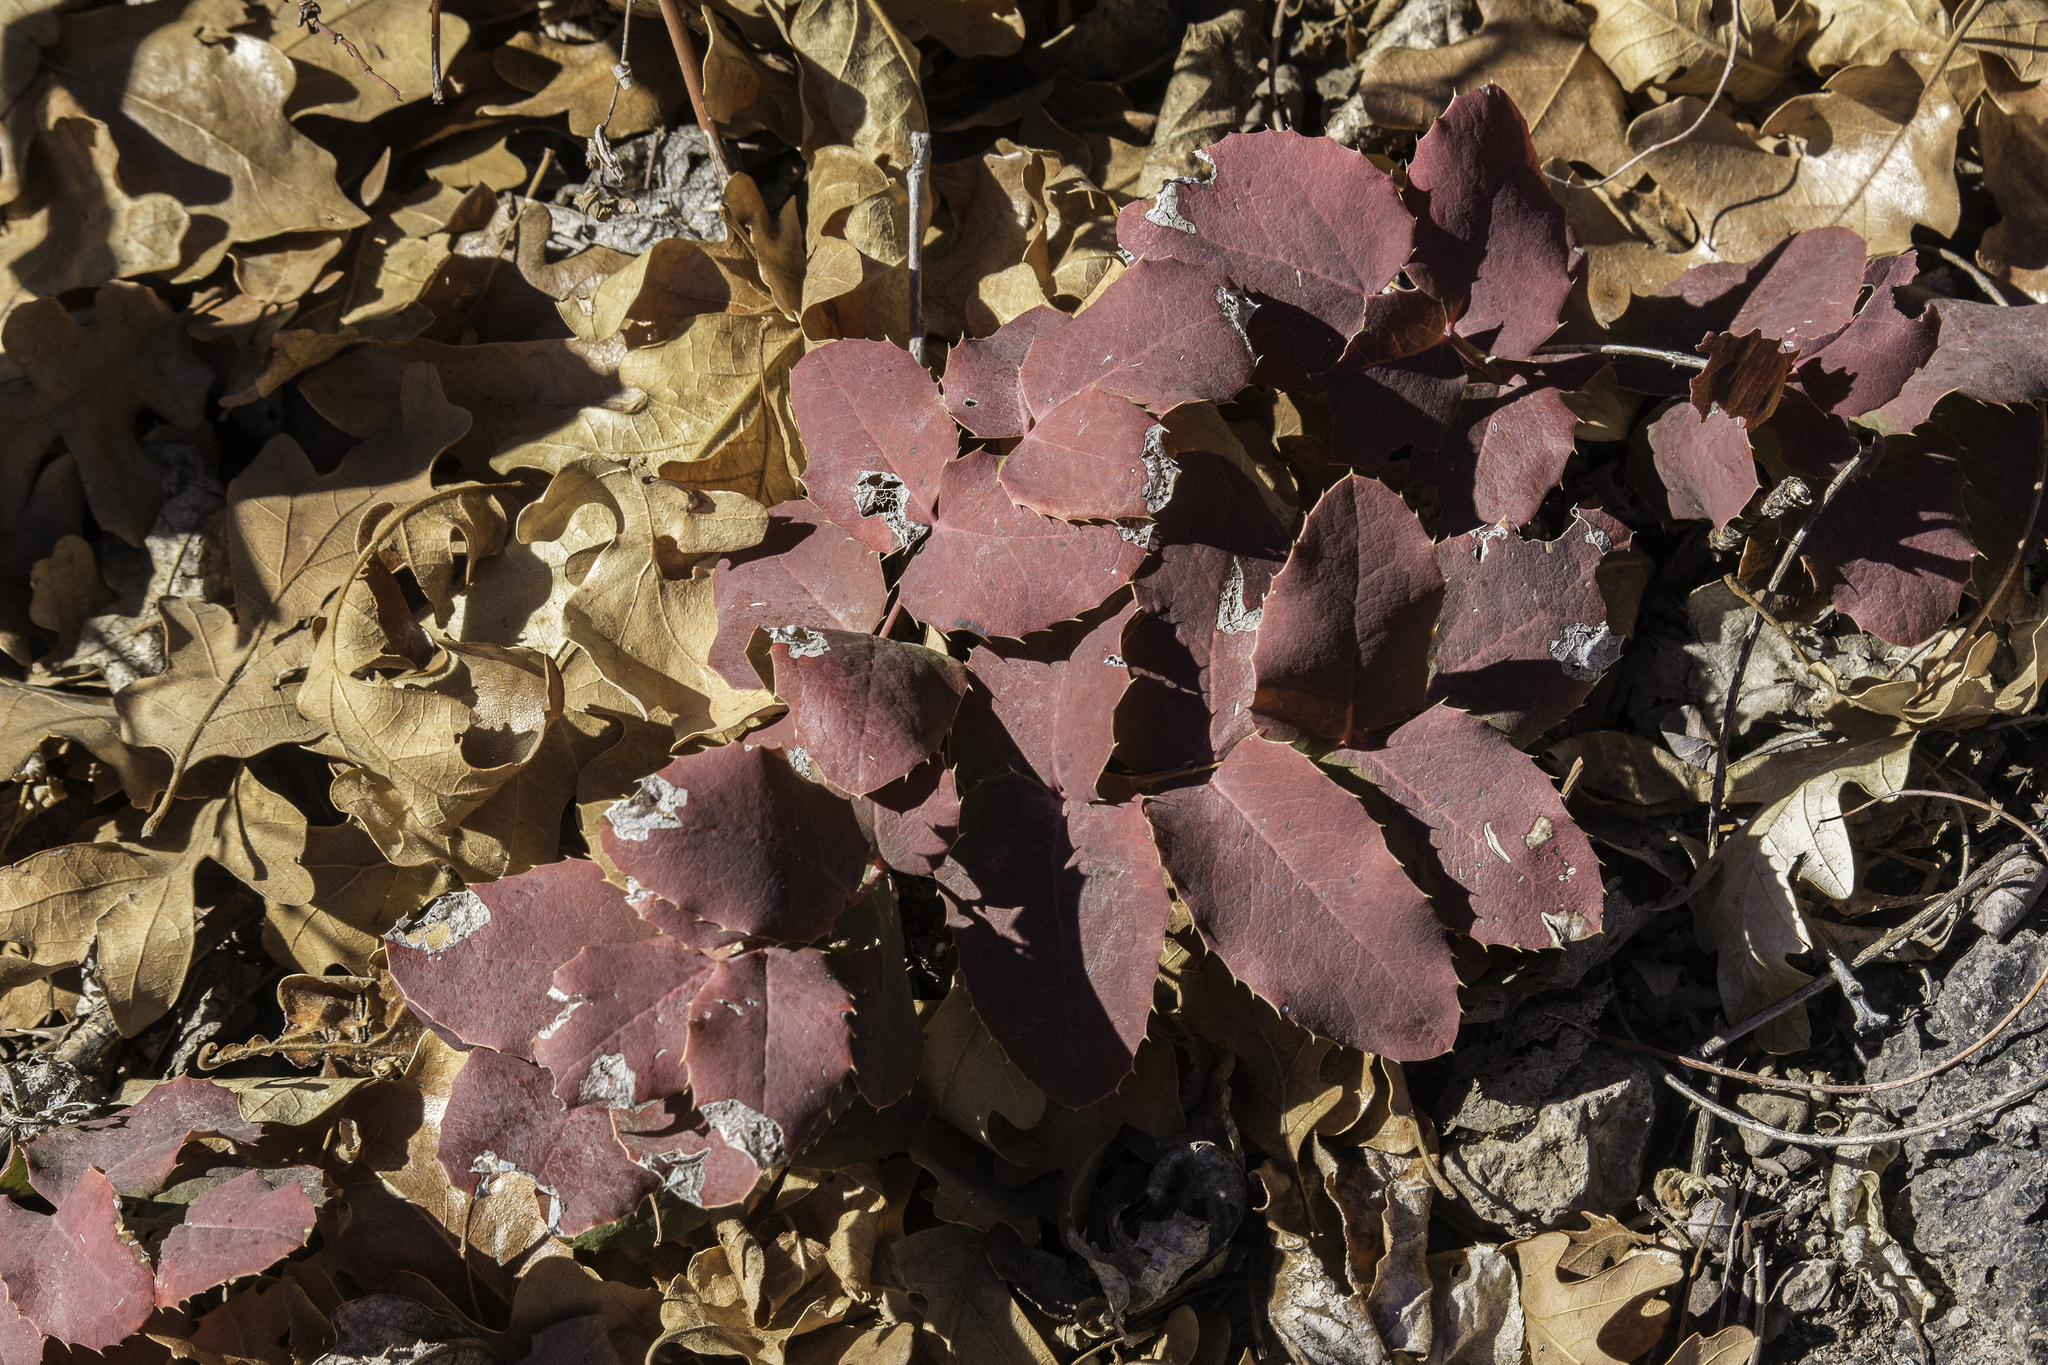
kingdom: Plantae
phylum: Tracheophyta
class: Magnoliopsida
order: Ranunculales
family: Berberidaceae
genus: Mahonia
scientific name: Mahonia repens
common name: Creeping oregon-grape
